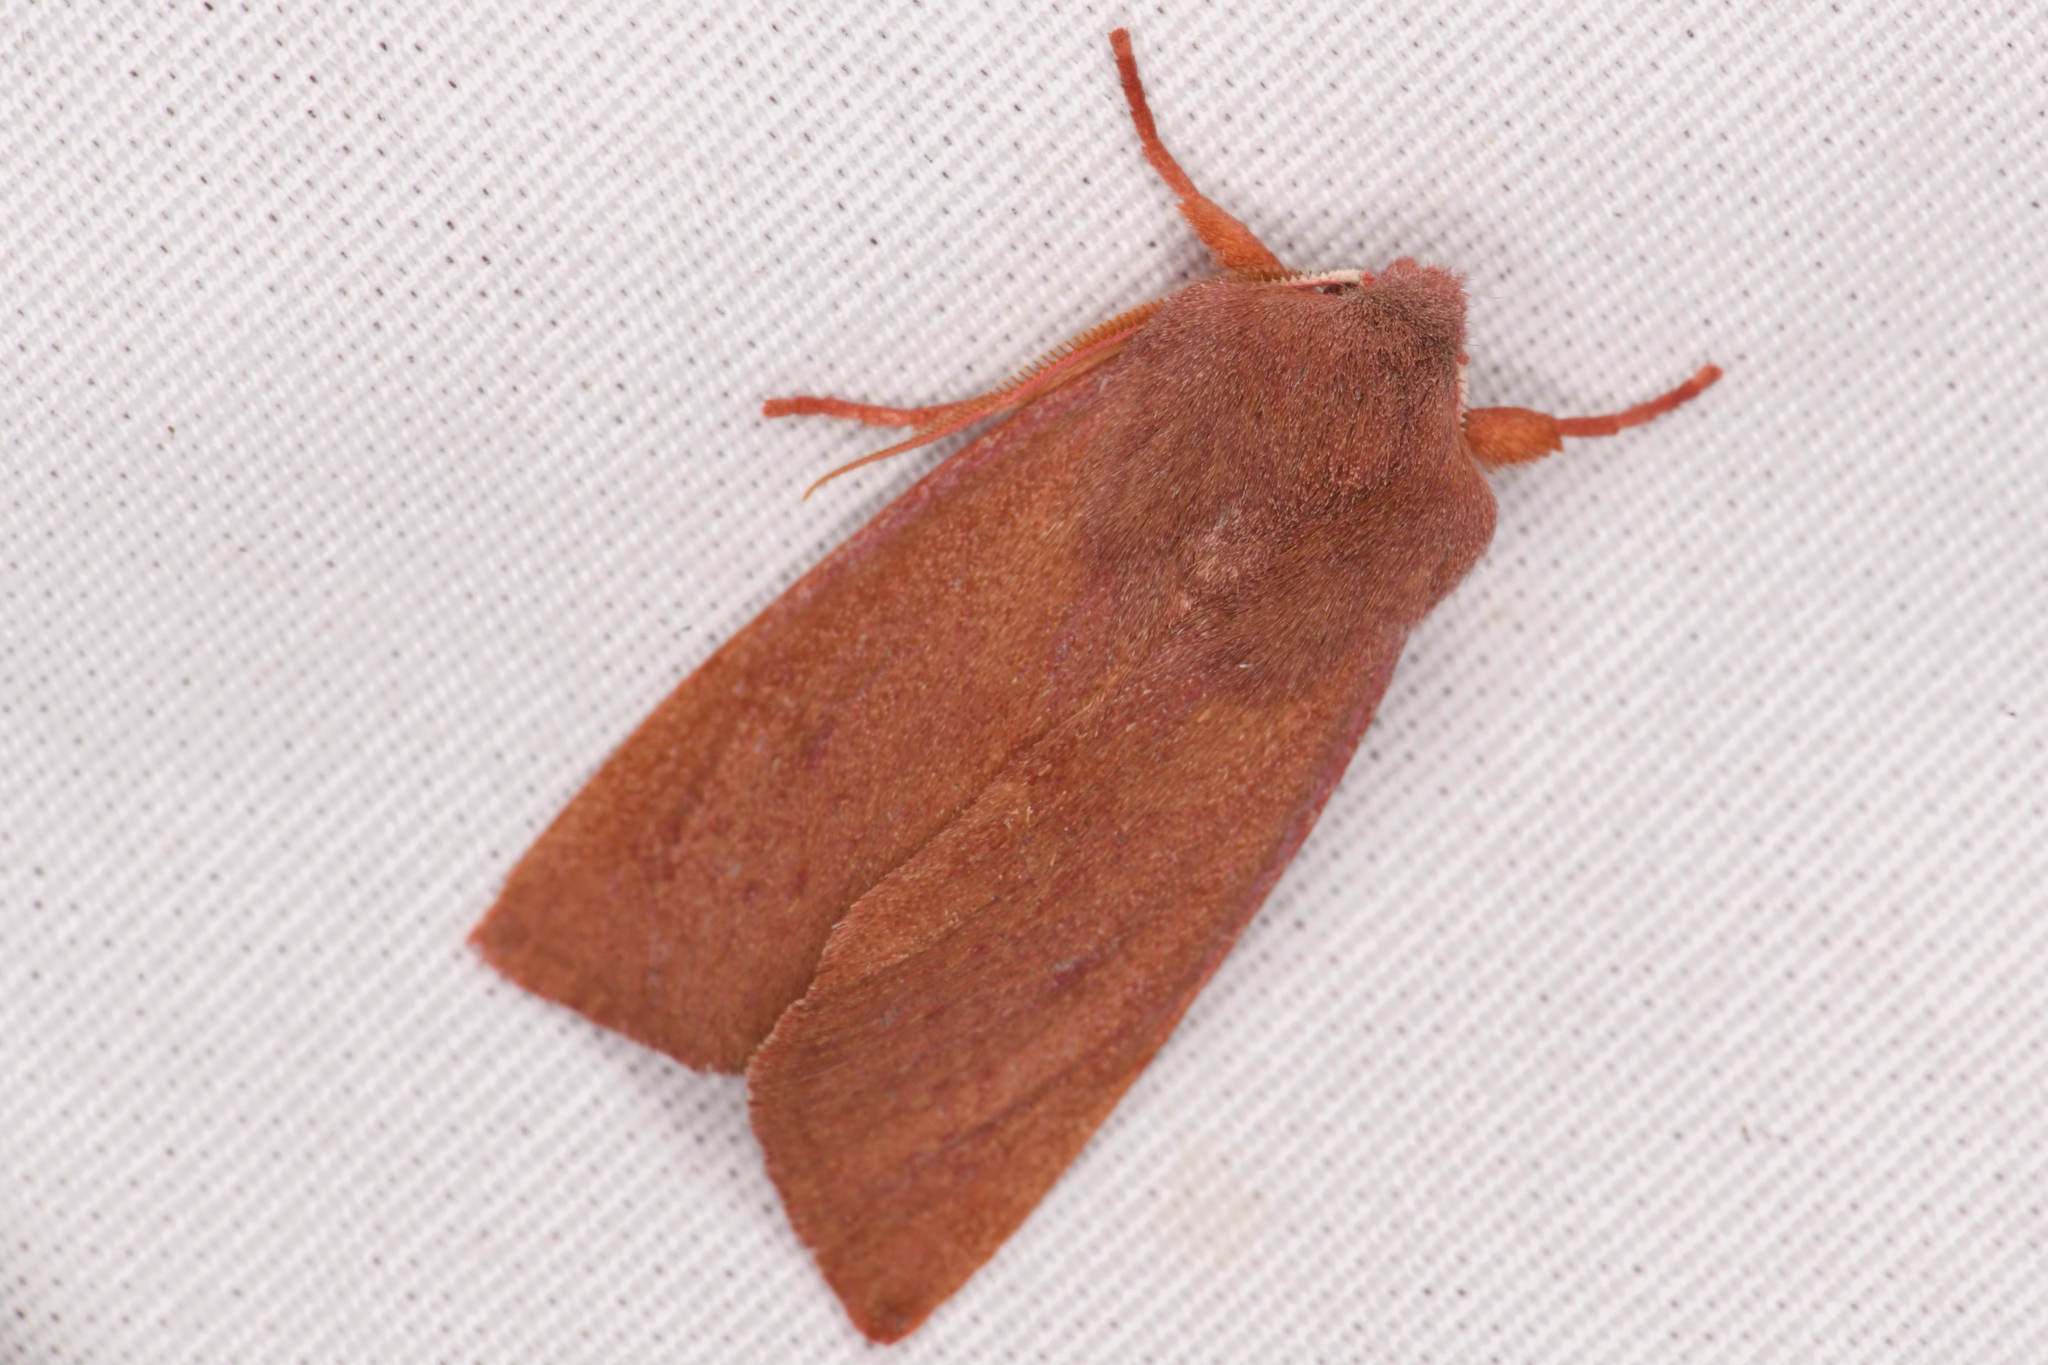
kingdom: Animalia
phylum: Arthropoda
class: Insecta
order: Lepidoptera
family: Noctuidae
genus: Orthosia
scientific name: Orthosia mys
